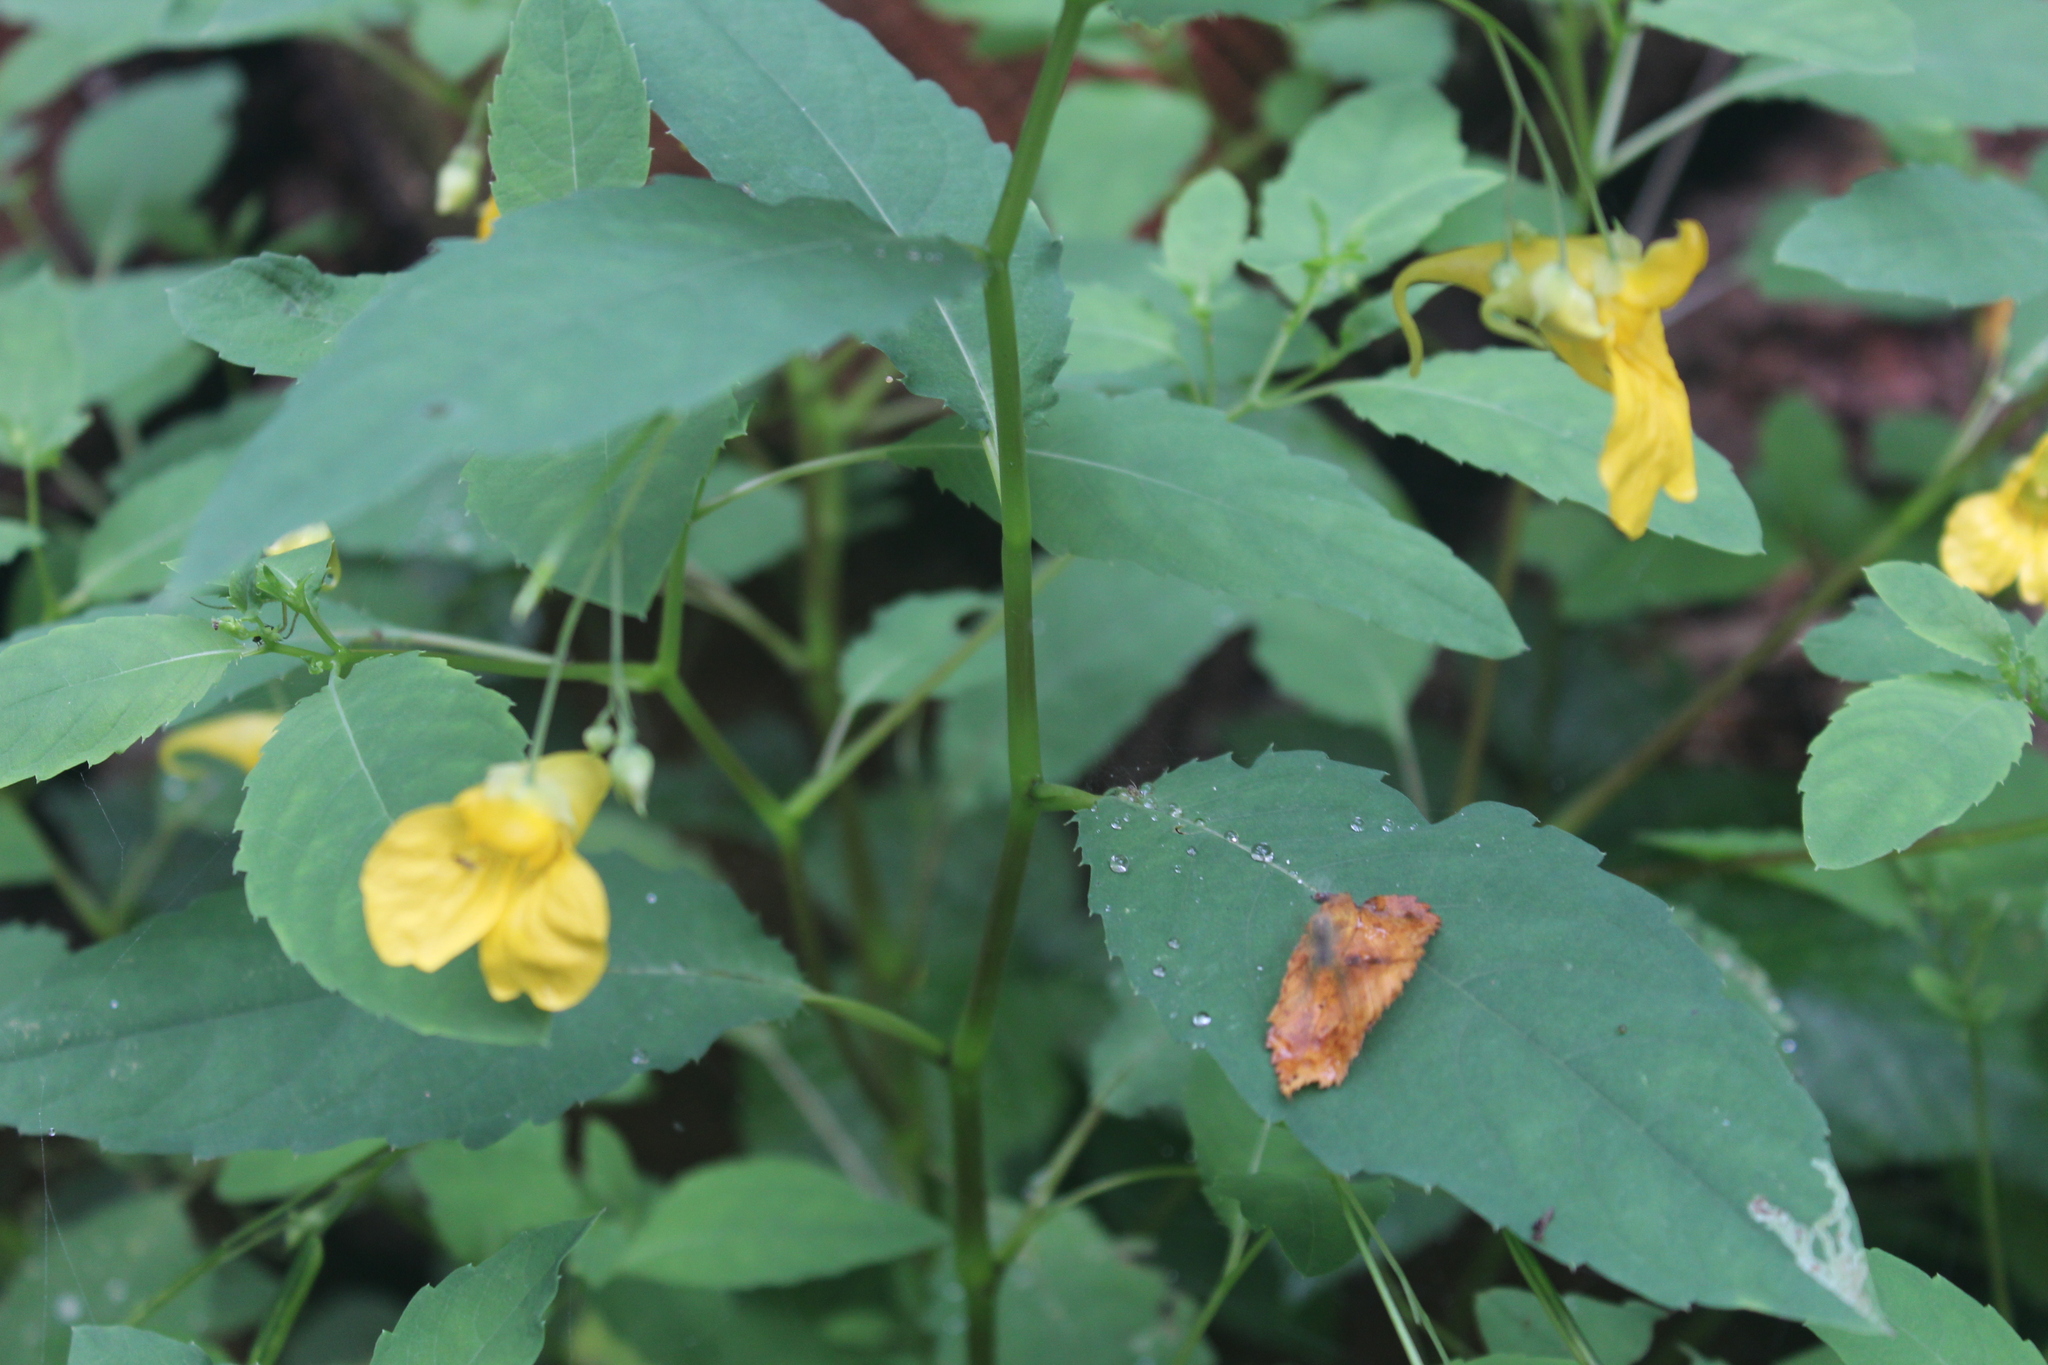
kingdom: Plantae
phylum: Tracheophyta
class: Magnoliopsida
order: Ericales
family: Balsaminaceae
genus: Impatiens
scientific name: Impatiens noli-tangere
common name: Touch-me-not balsam
